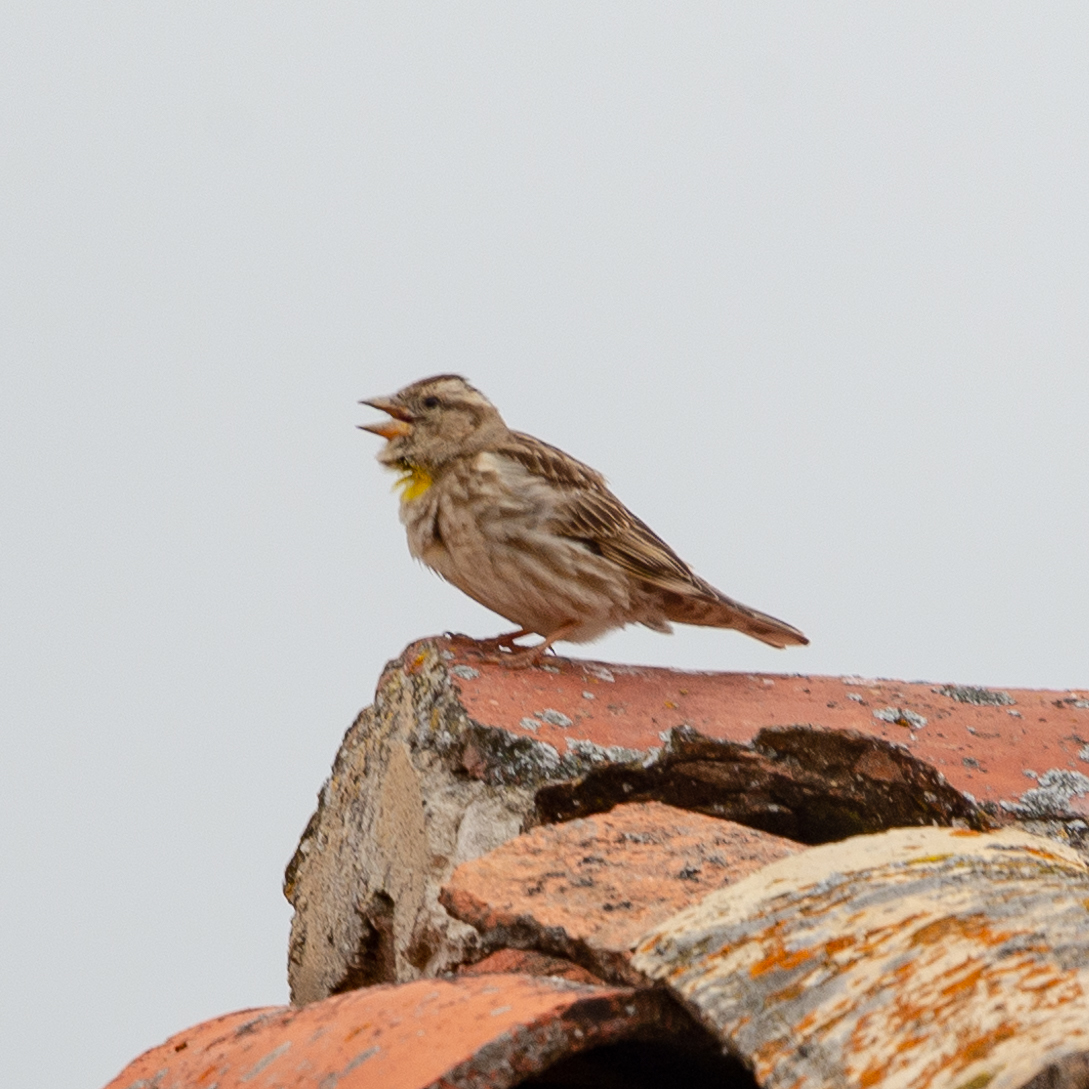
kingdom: Animalia
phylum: Chordata
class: Aves
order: Passeriformes
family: Passeridae
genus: Petronia
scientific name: Petronia petronia
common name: Rock sparrow
